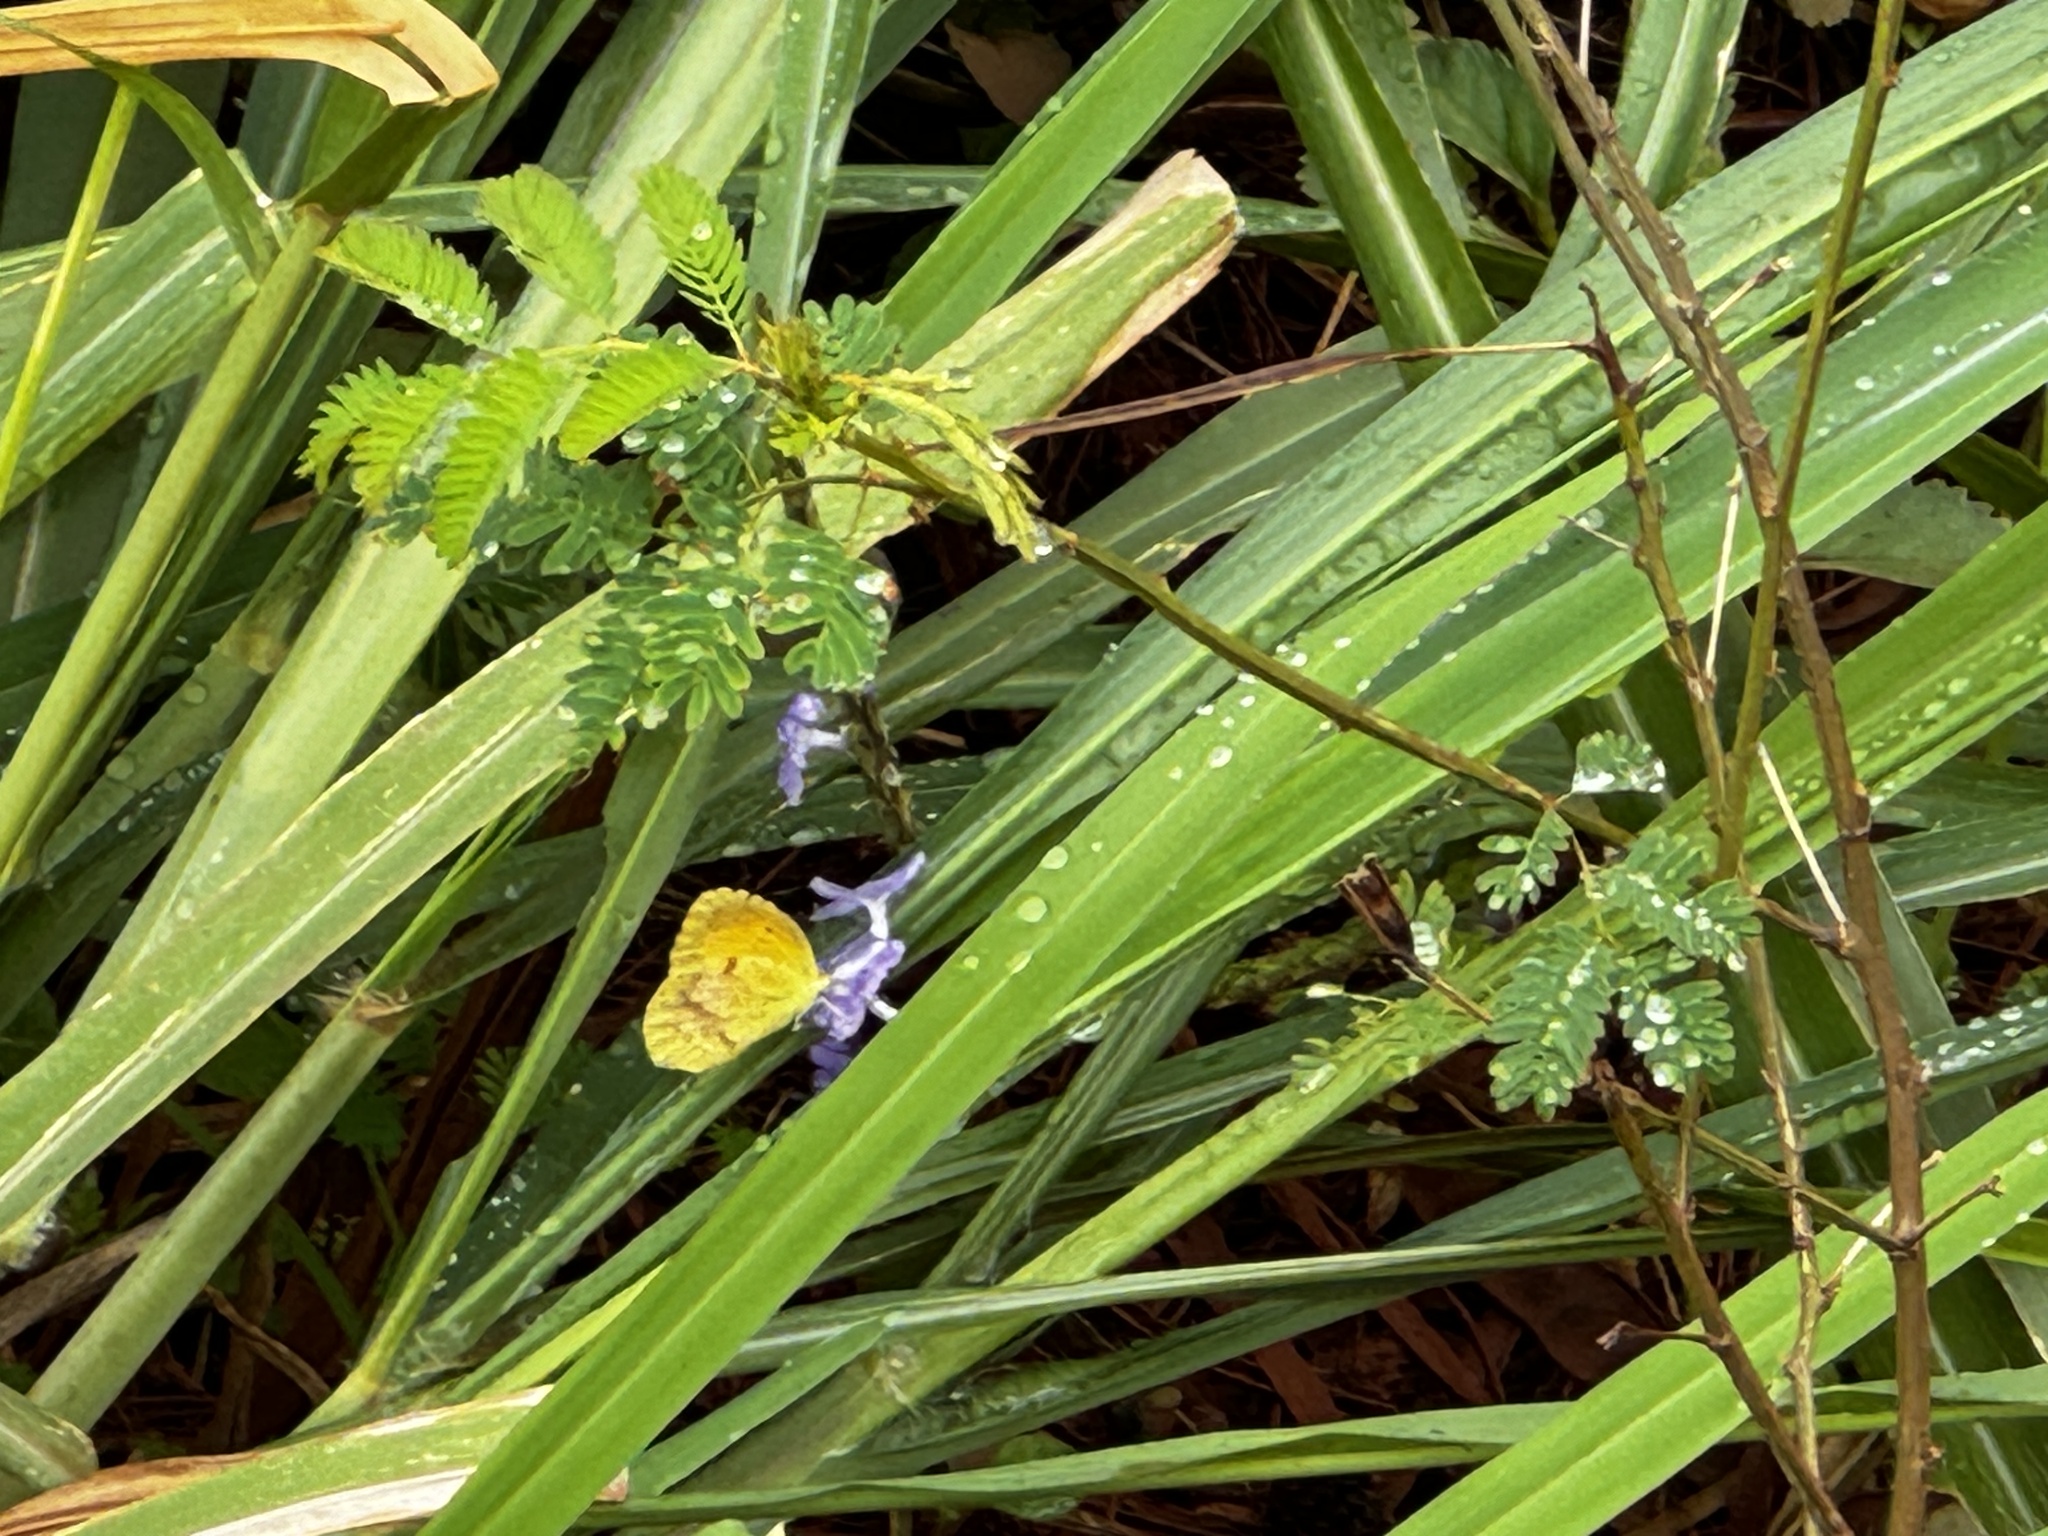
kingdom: Animalia
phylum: Arthropoda
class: Insecta
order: Lepidoptera
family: Pieridae
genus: Abaeis
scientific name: Abaeis nicippe
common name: Sleepy orange
